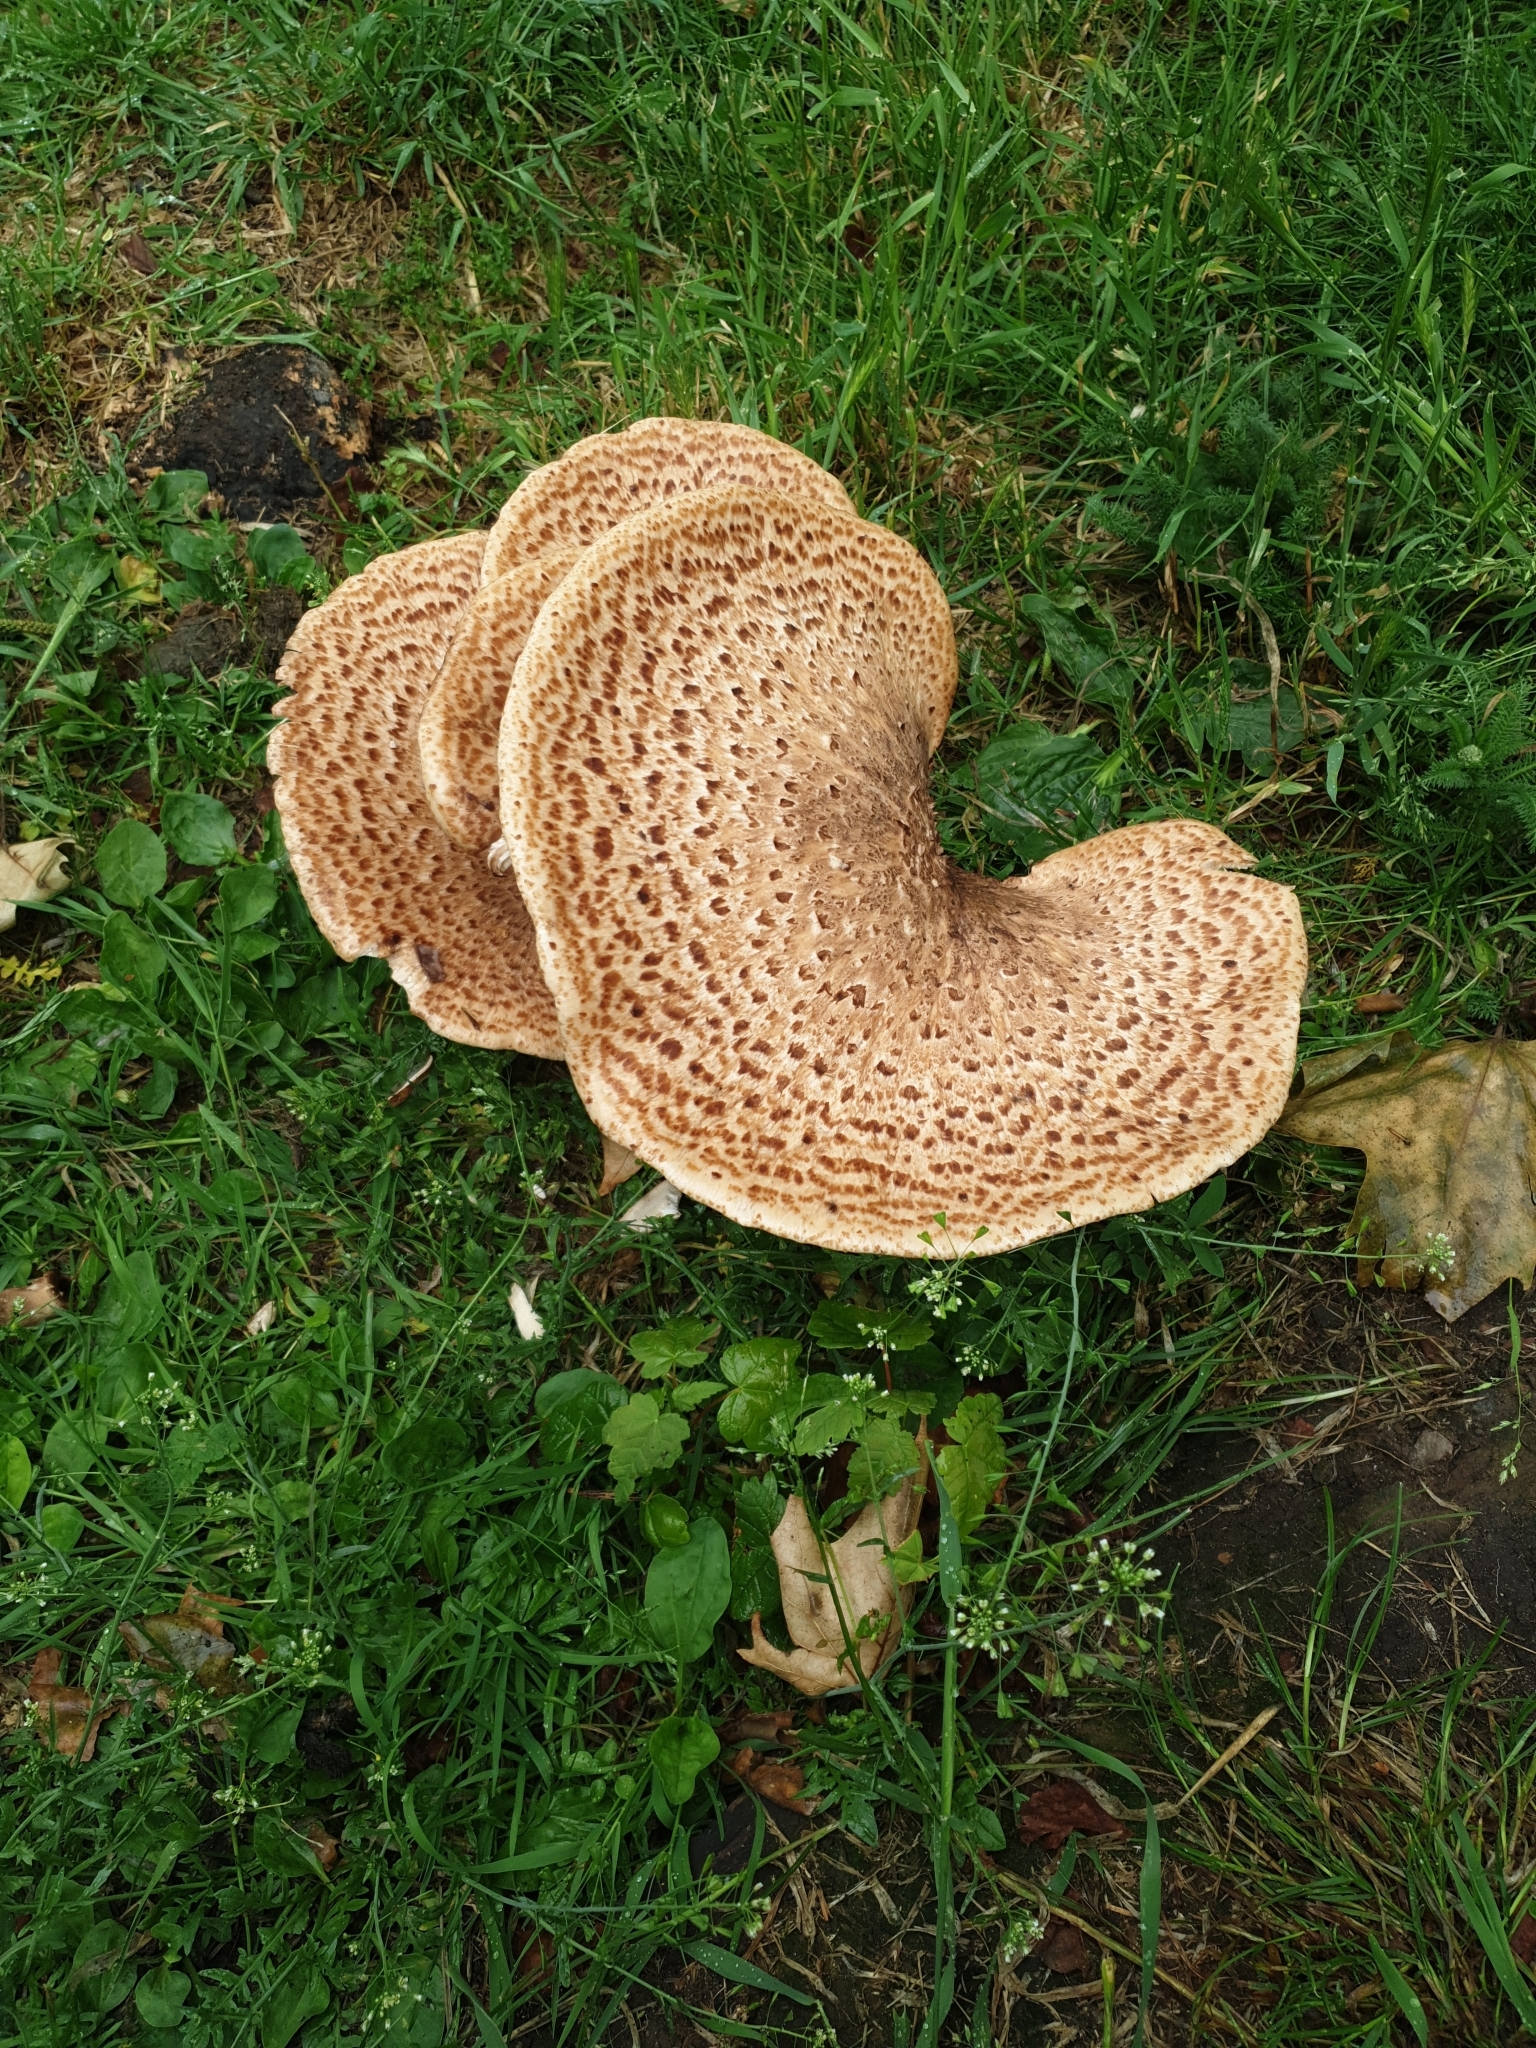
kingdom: Fungi
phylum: Basidiomycota
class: Agaricomycetes
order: Polyporales
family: Polyporaceae
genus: Cerioporus
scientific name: Cerioporus squamosus
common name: Dryad's saddle
